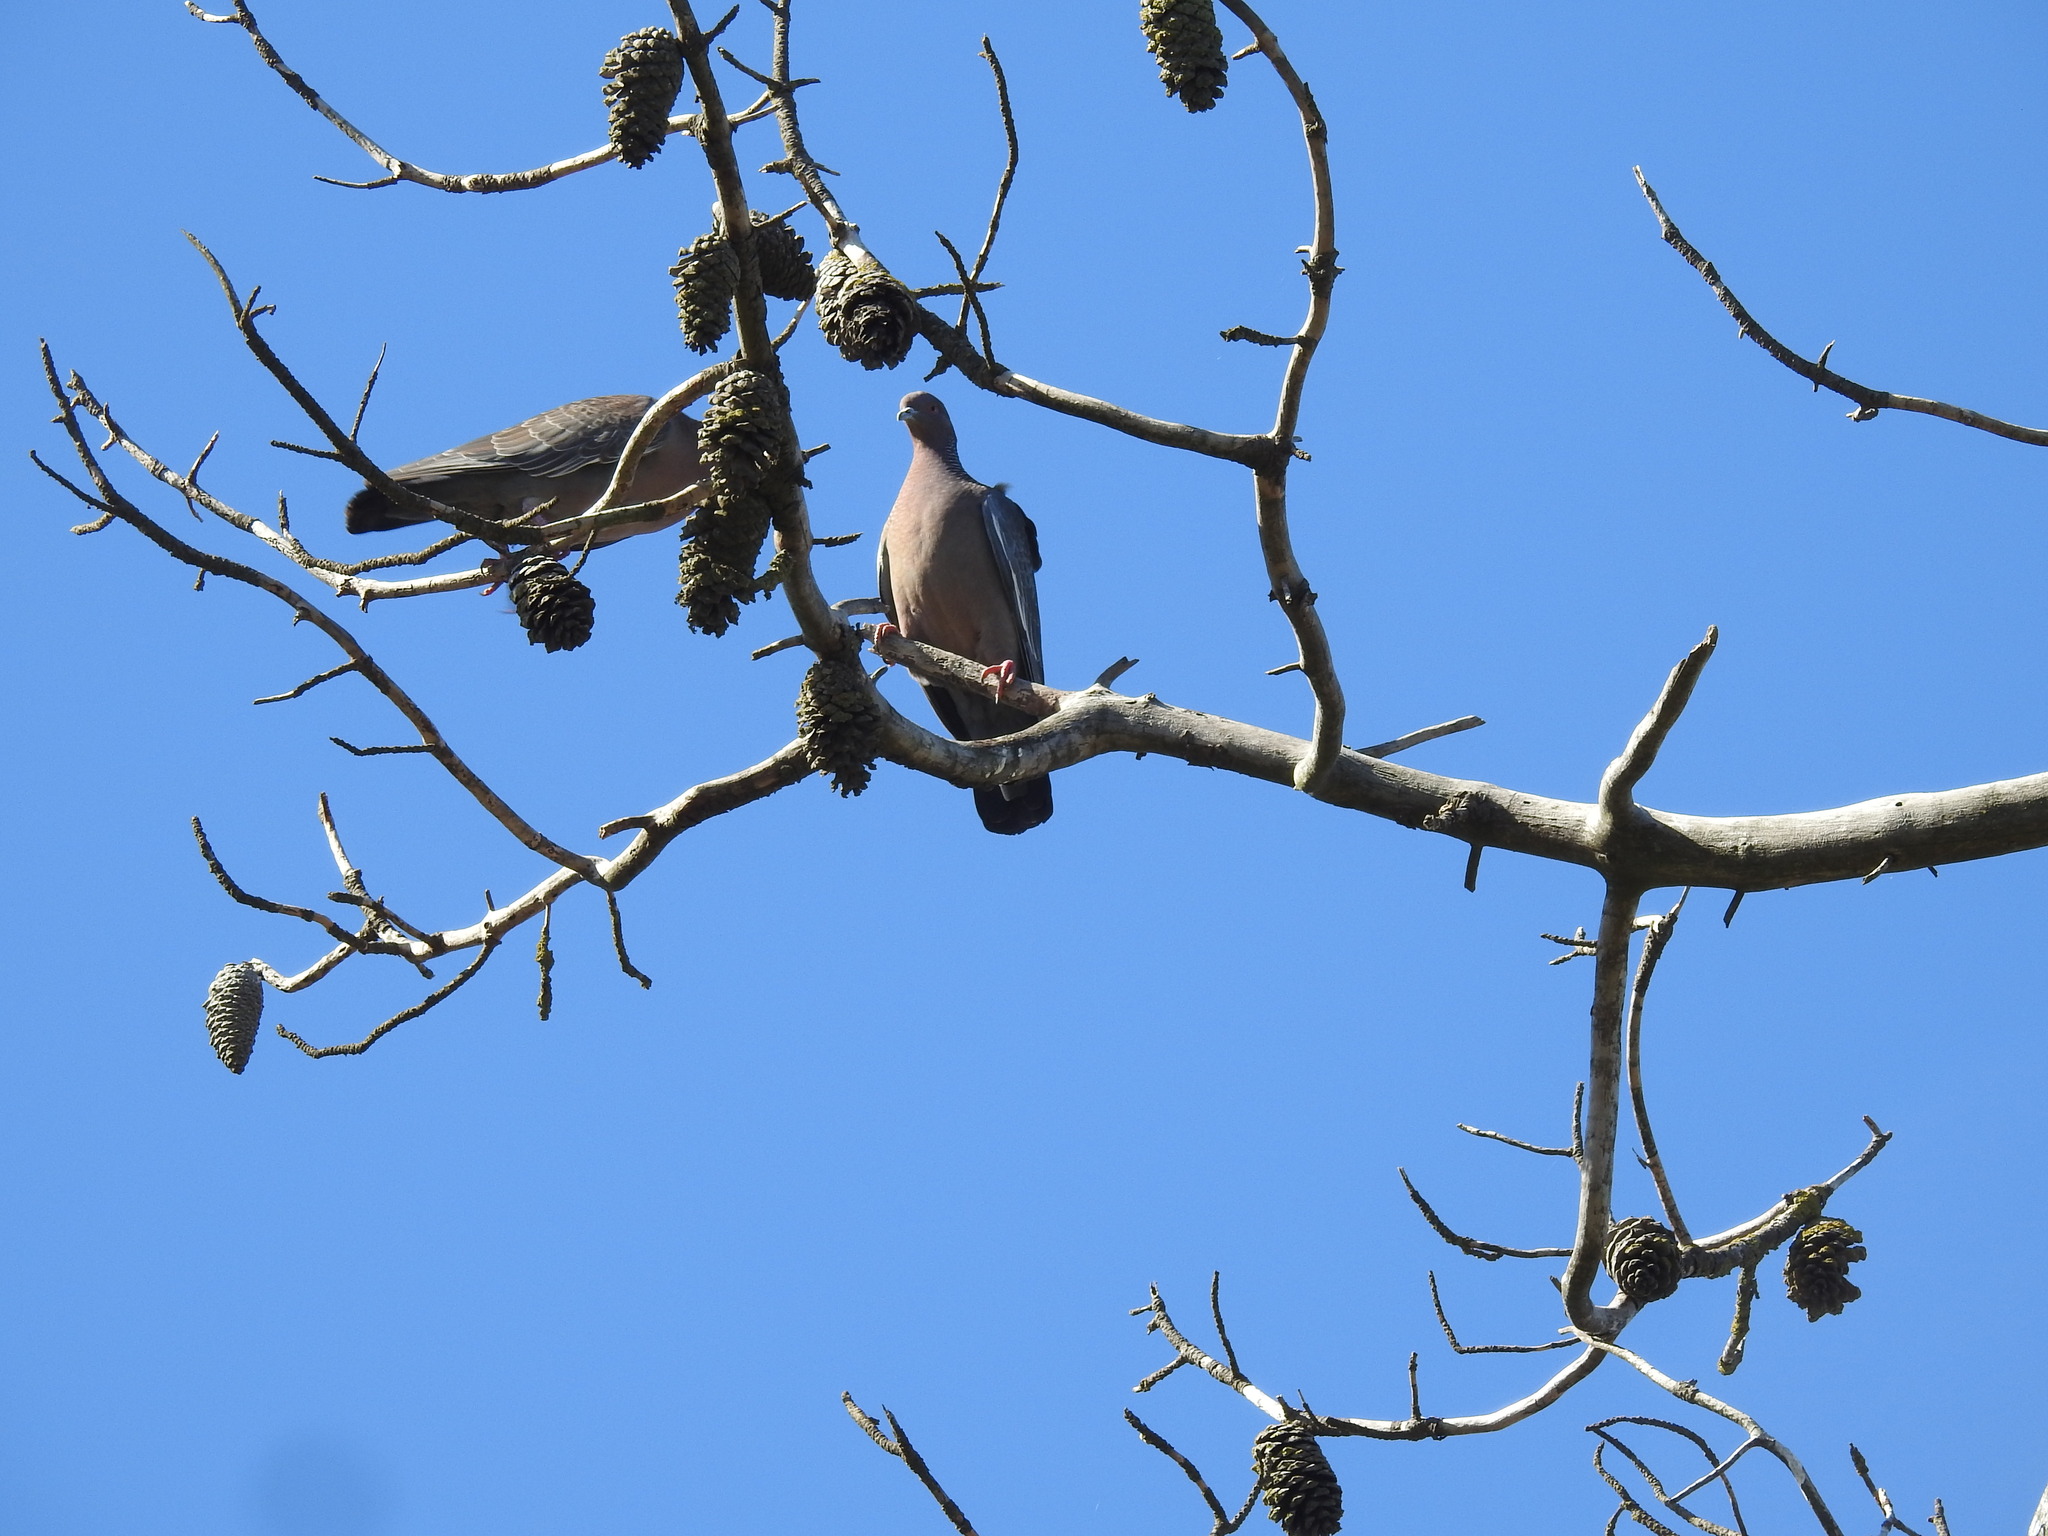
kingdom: Animalia
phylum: Chordata
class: Aves
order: Columbiformes
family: Columbidae
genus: Patagioenas
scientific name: Patagioenas picazuro
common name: Picazuro pigeon
